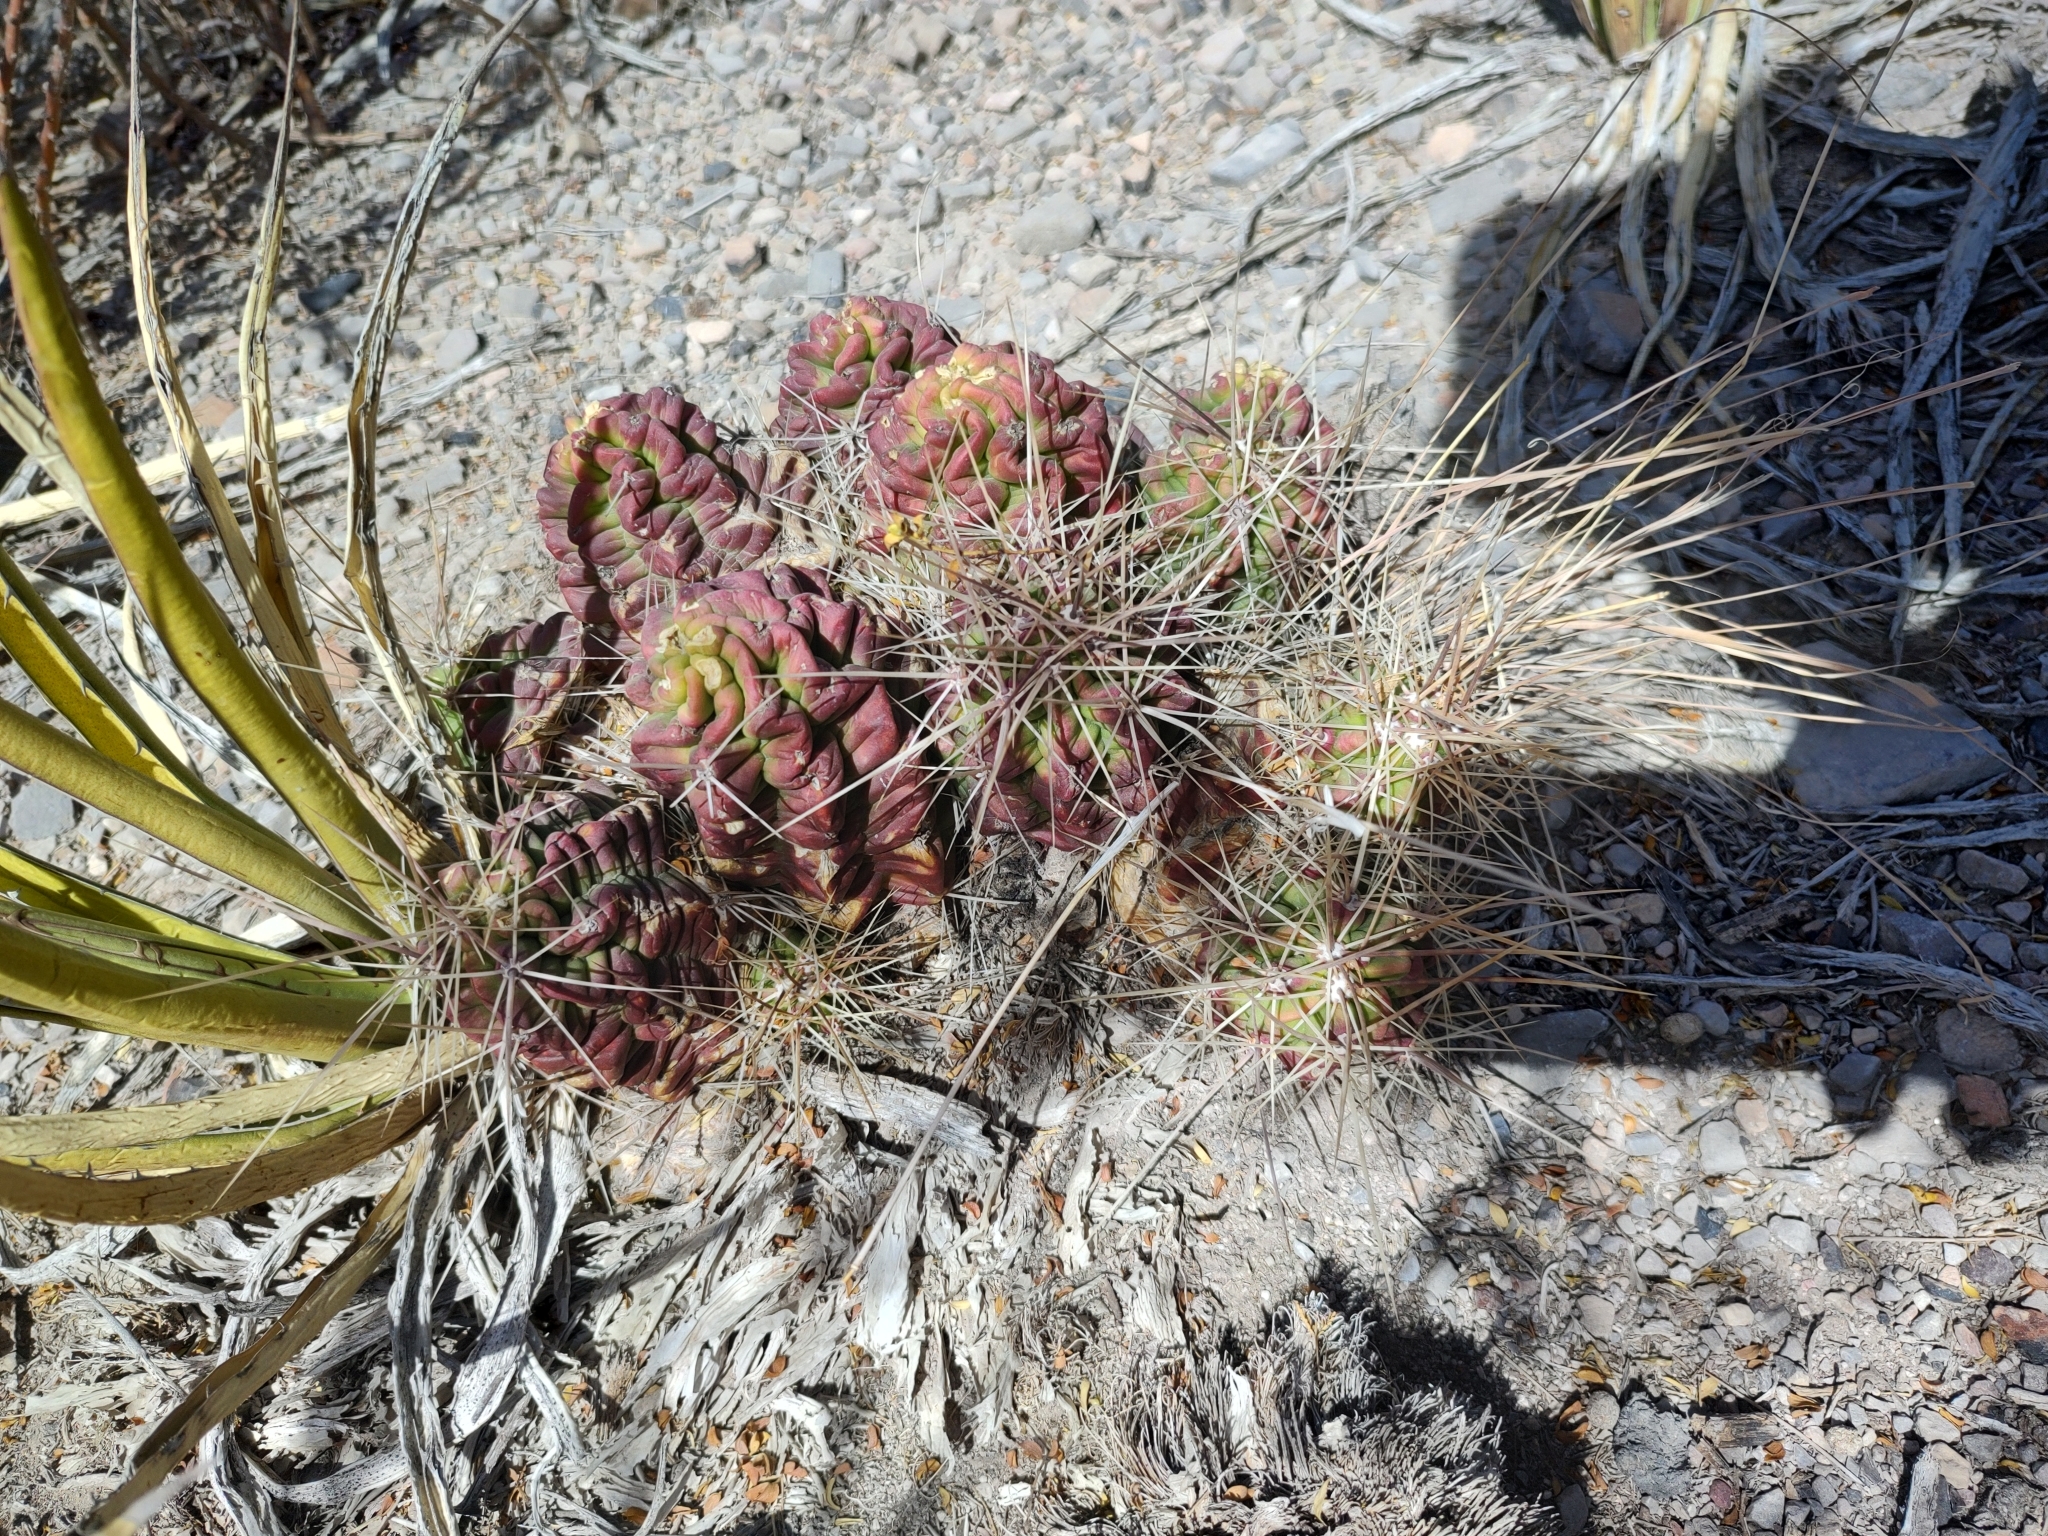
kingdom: Plantae
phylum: Tracheophyta
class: Magnoliopsida
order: Caryophyllales
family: Cactaceae
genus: Echinocereus
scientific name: Echinocereus enneacanthus
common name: Pitaya
